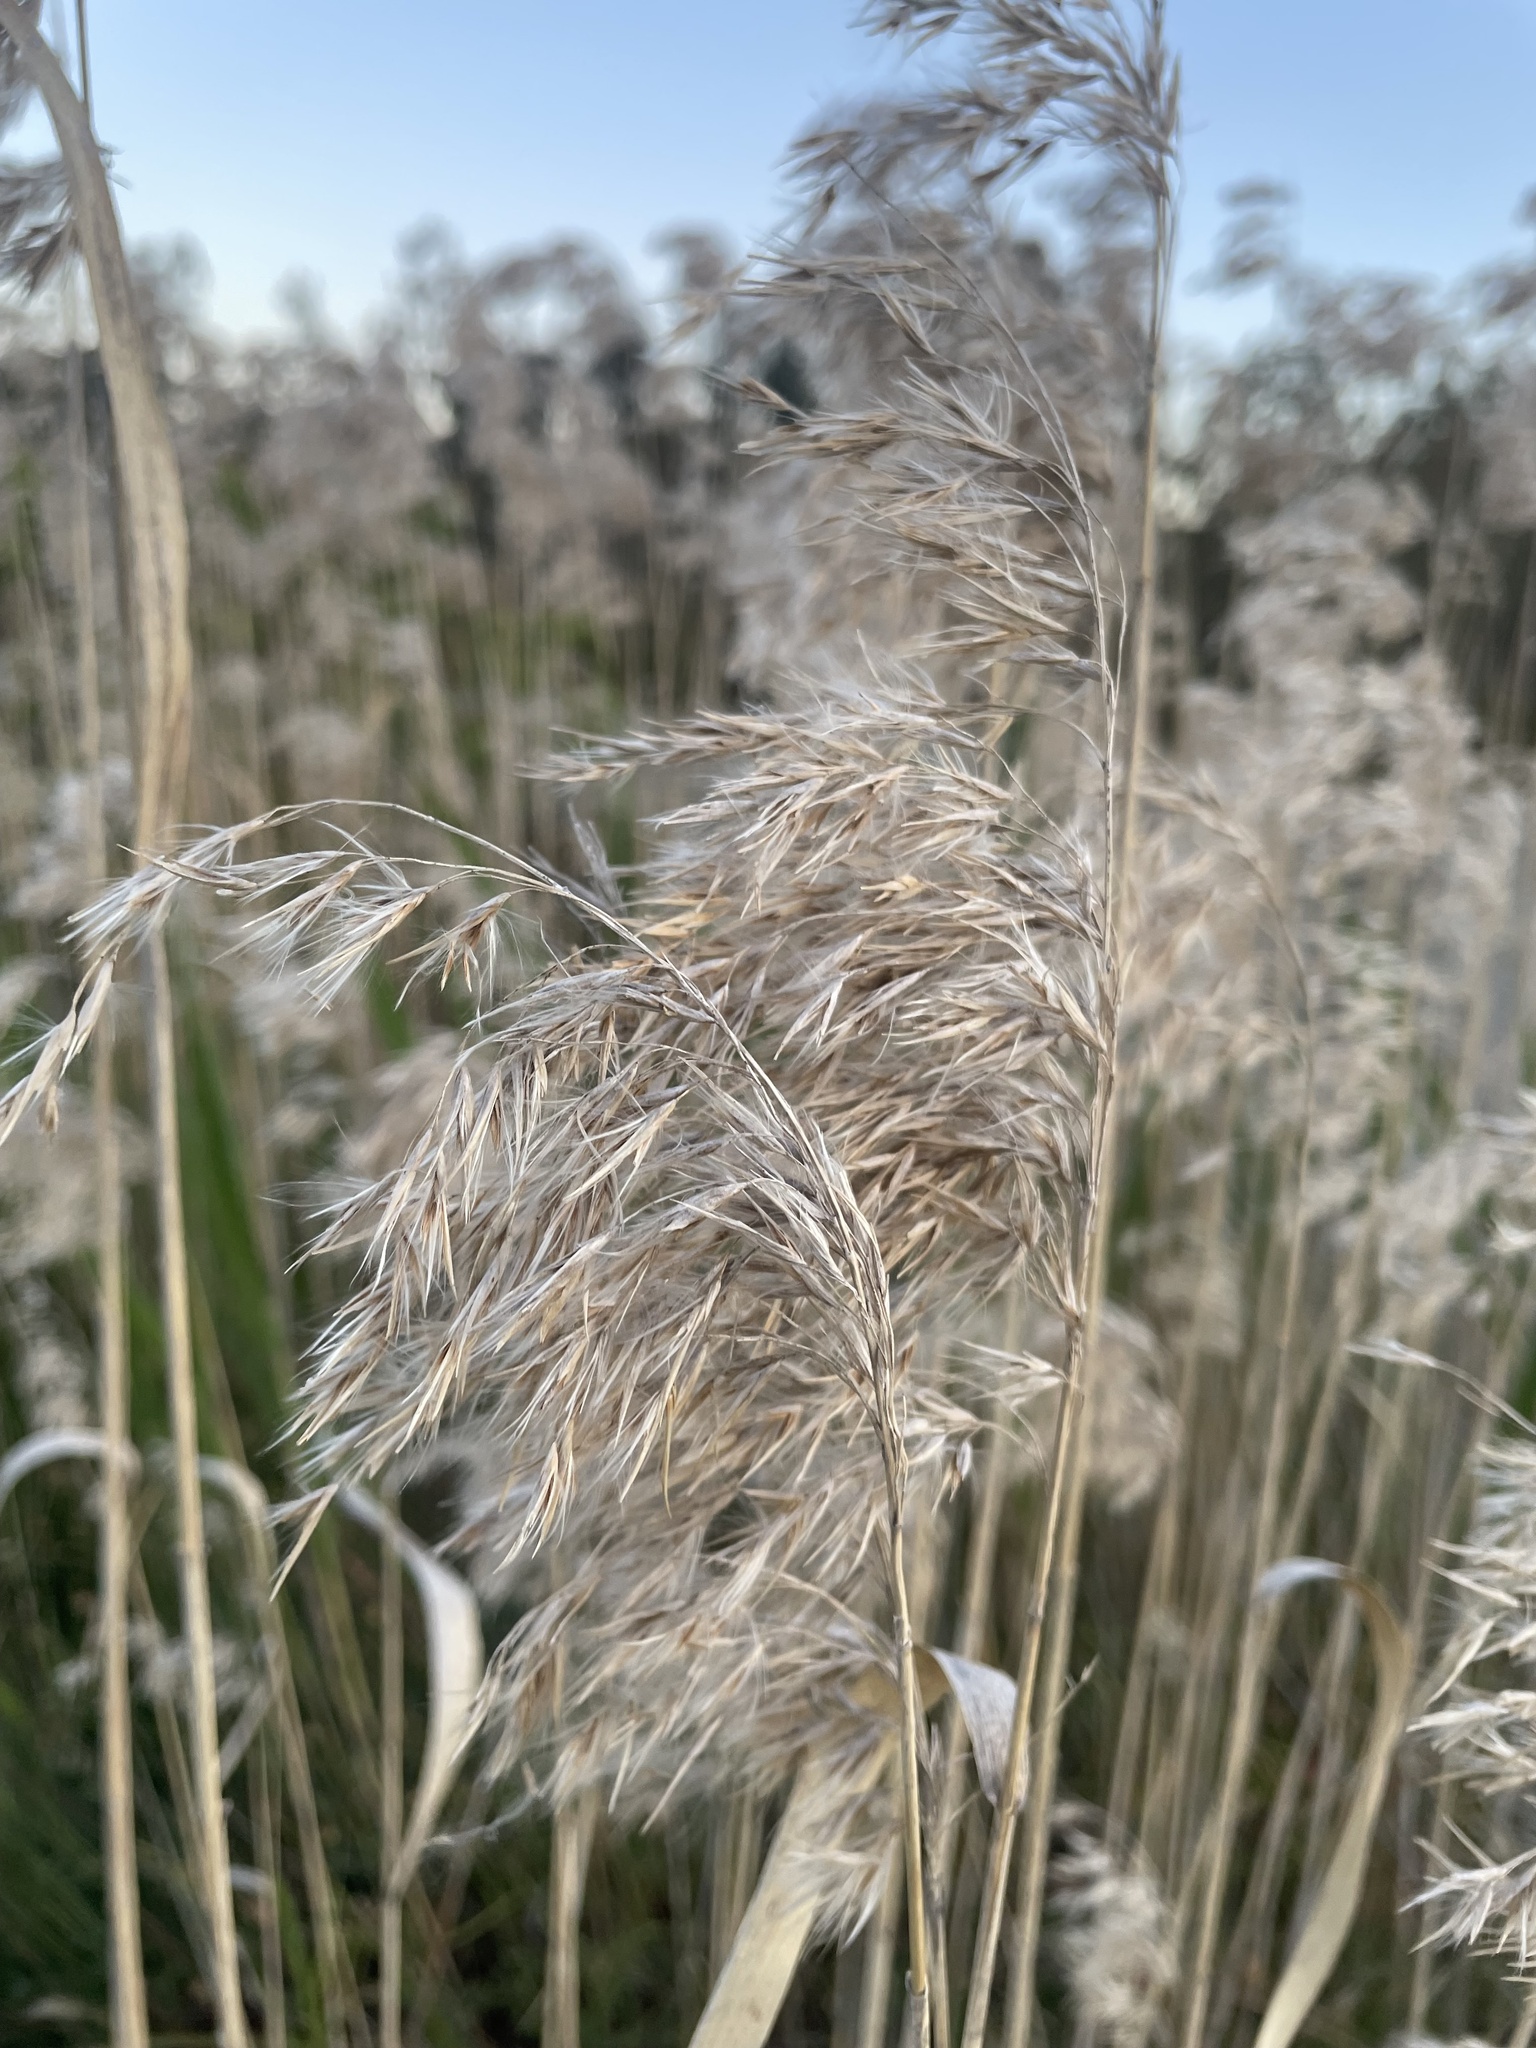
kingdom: Plantae
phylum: Tracheophyta
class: Liliopsida
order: Poales
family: Poaceae
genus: Phragmites
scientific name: Phragmites australis
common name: Common reed
